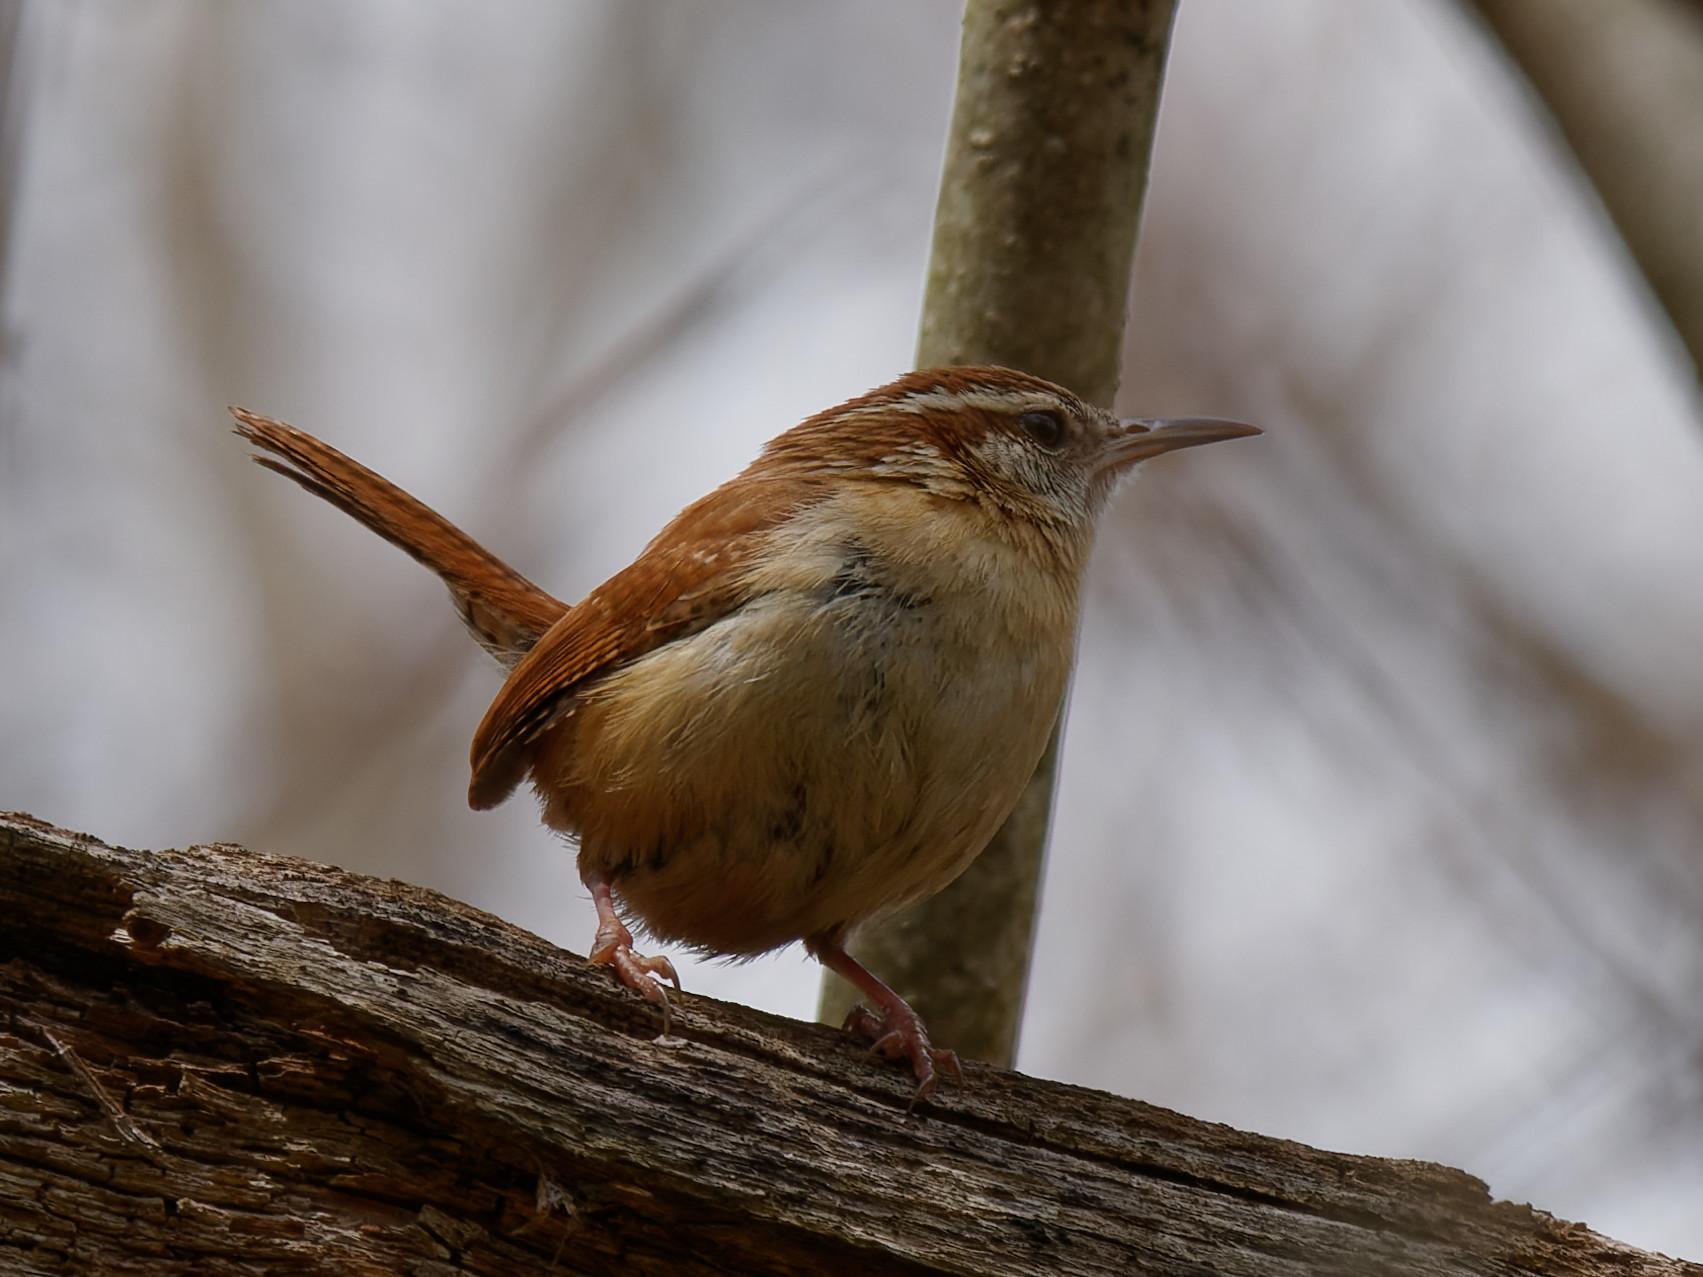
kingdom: Animalia
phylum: Chordata
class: Aves
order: Passeriformes
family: Troglodytidae
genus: Thryothorus
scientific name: Thryothorus ludovicianus
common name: Carolina wren
